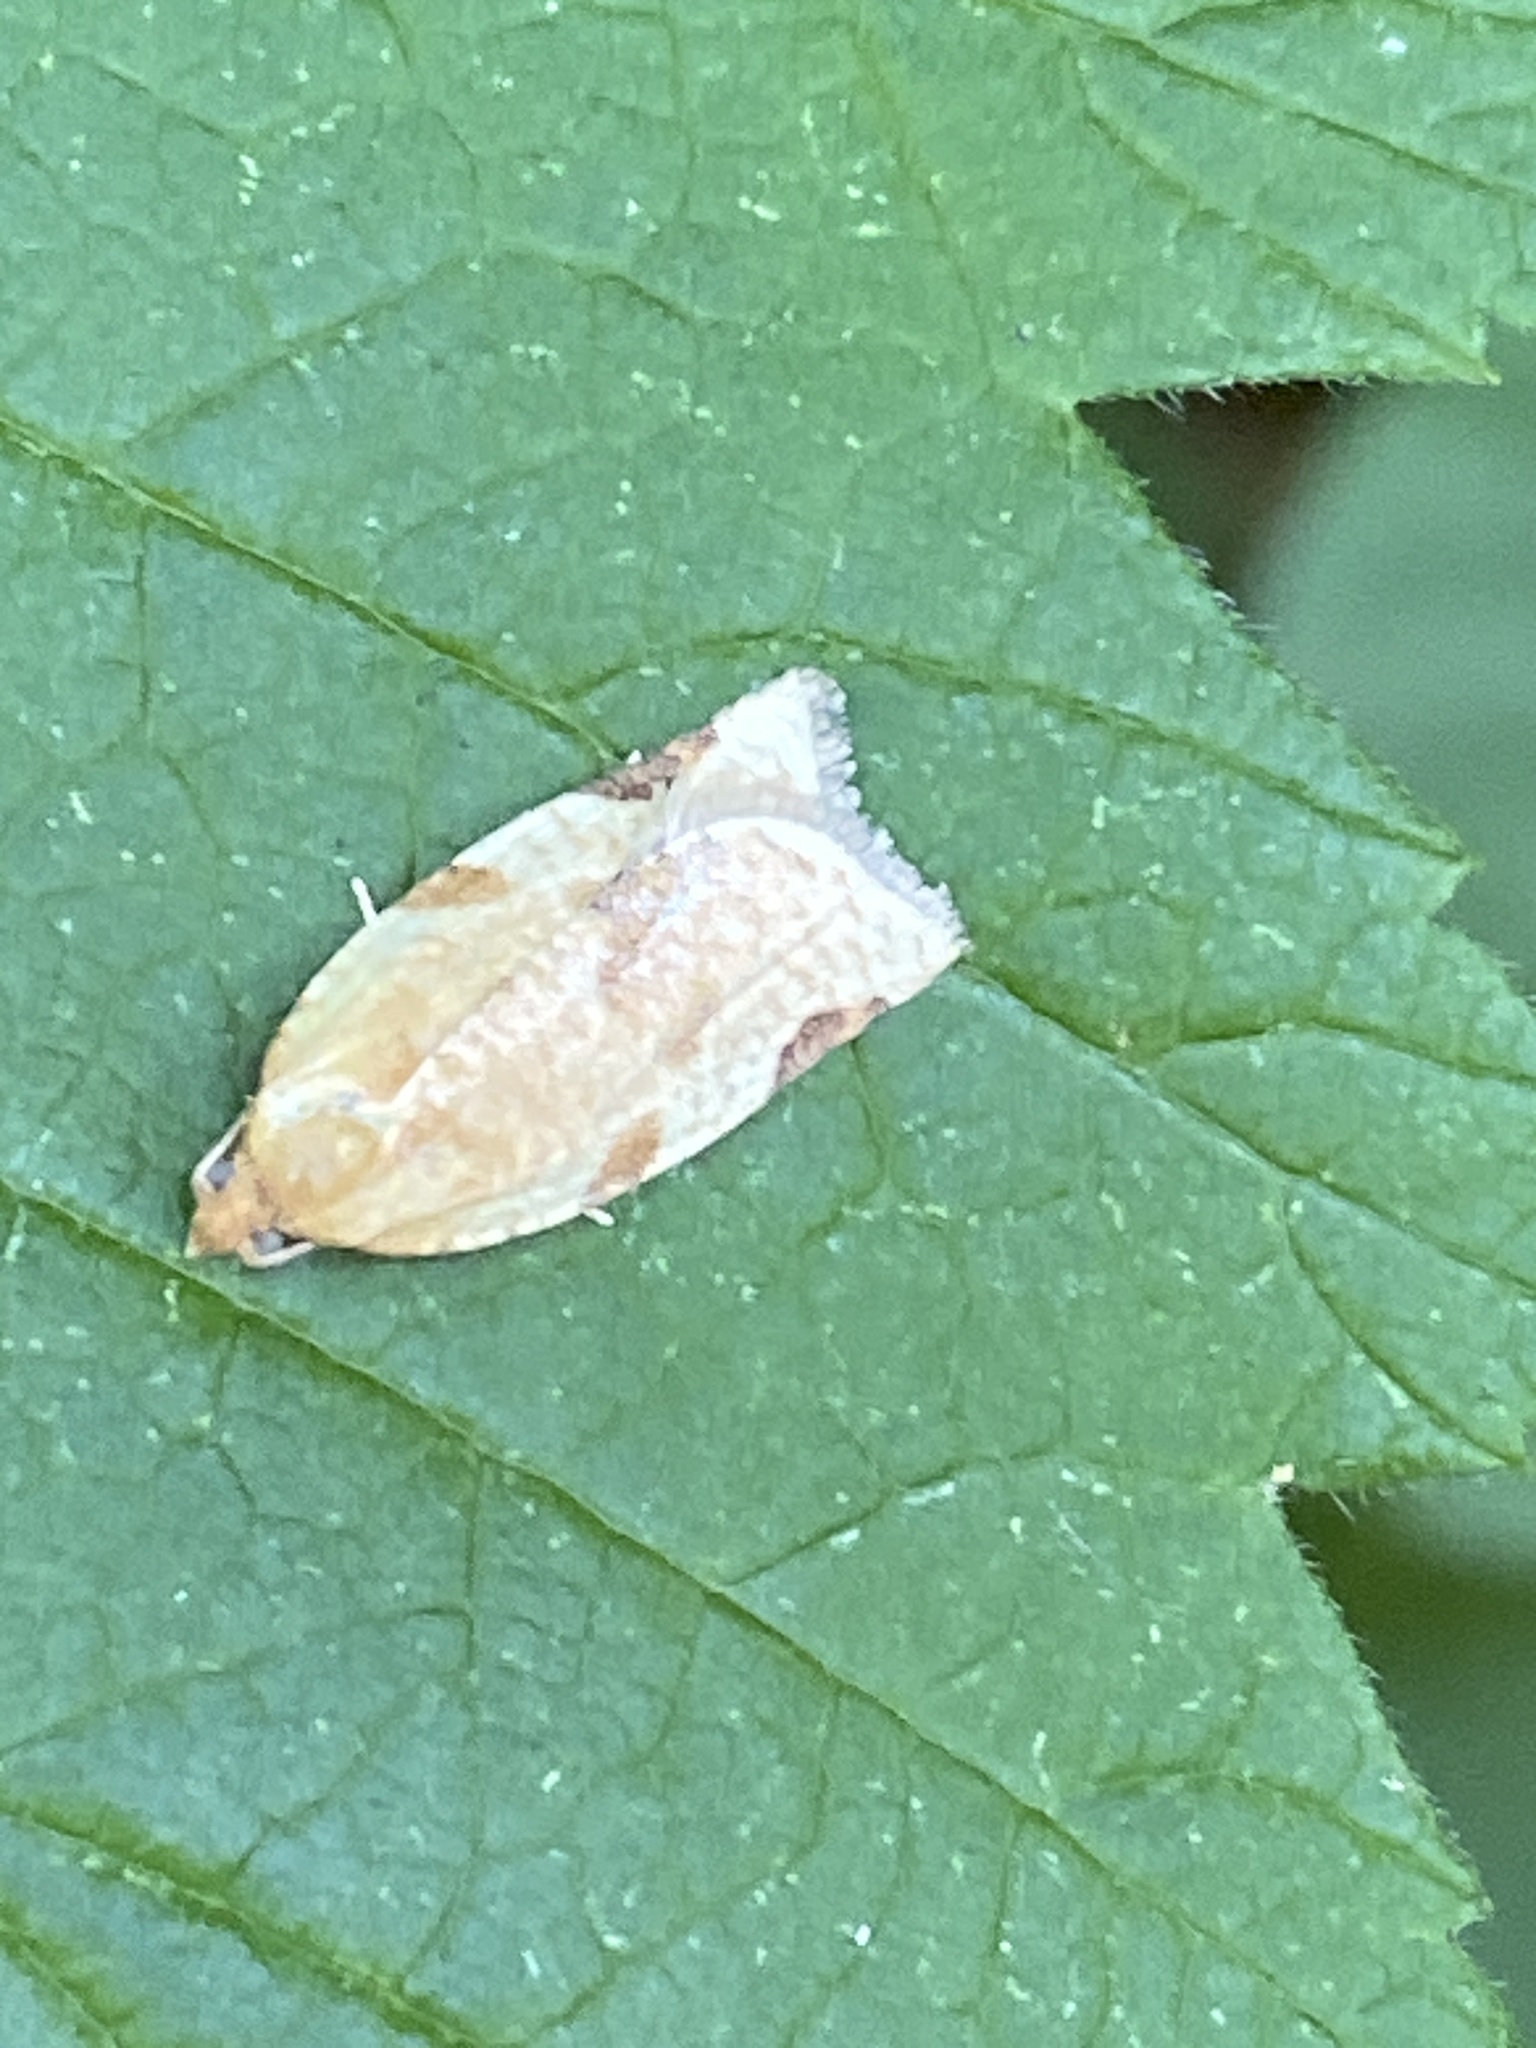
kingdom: Animalia
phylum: Arthropoda
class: Insecta
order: Lepidoptera
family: Tortricidae
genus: Paramesia
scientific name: Paramesia gnomana
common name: Small straw twist
